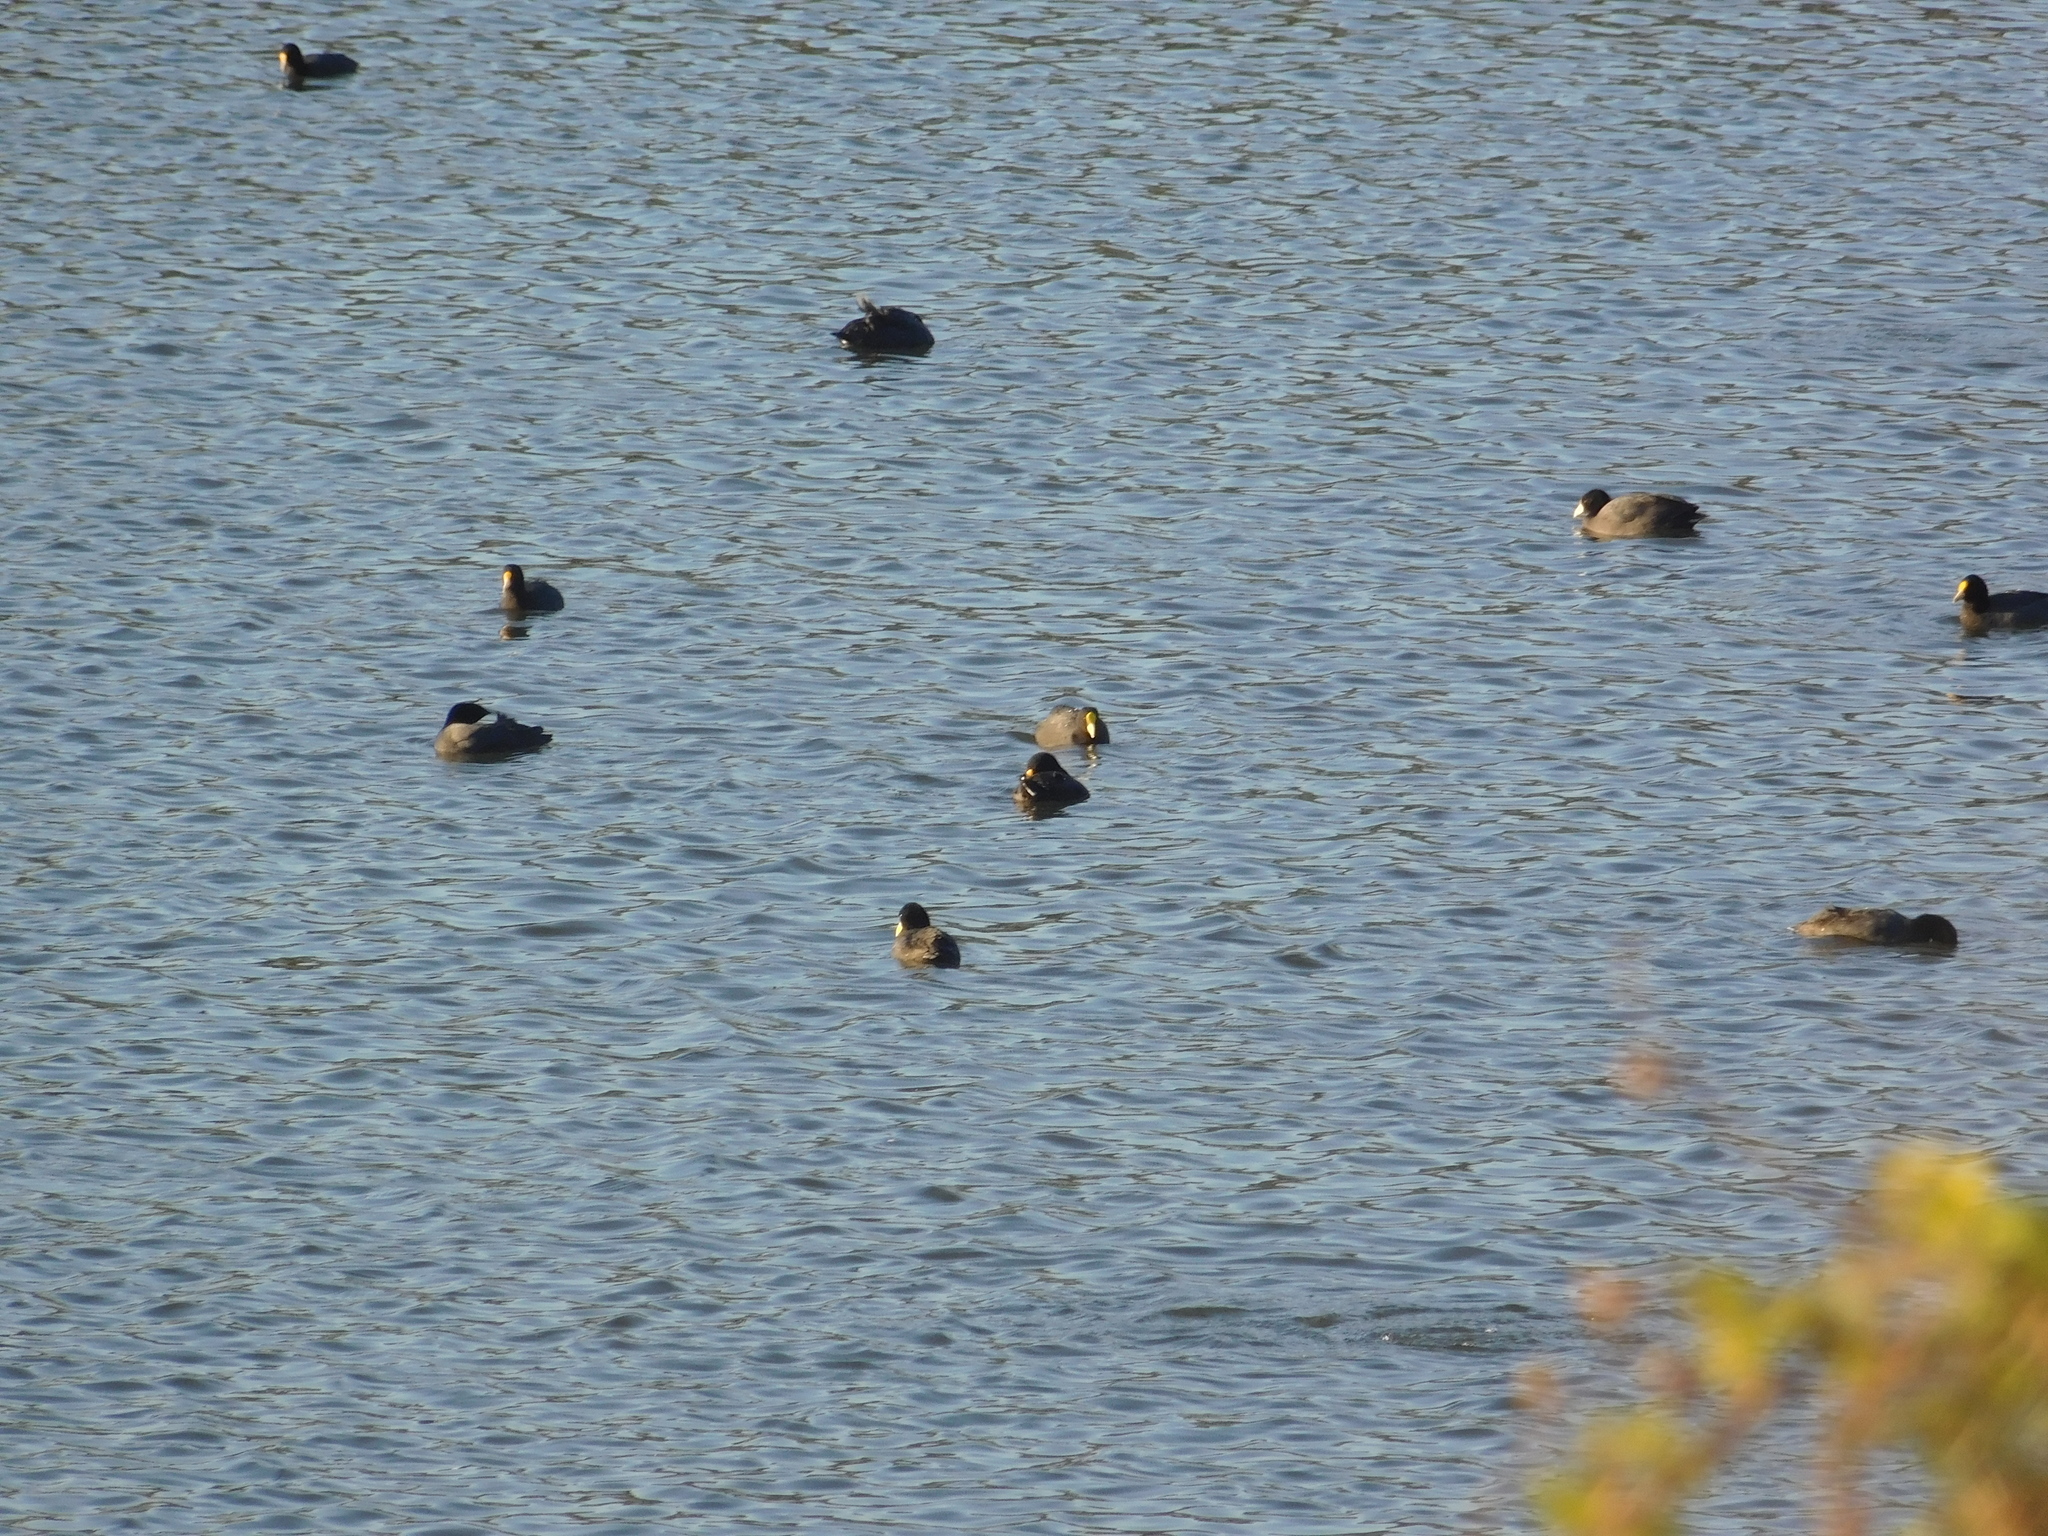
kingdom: Animalia
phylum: Chordata
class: Aves
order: Gruiformes
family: Rallidae
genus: Fulica
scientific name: Fulica leucoptera
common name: White-winged coot
